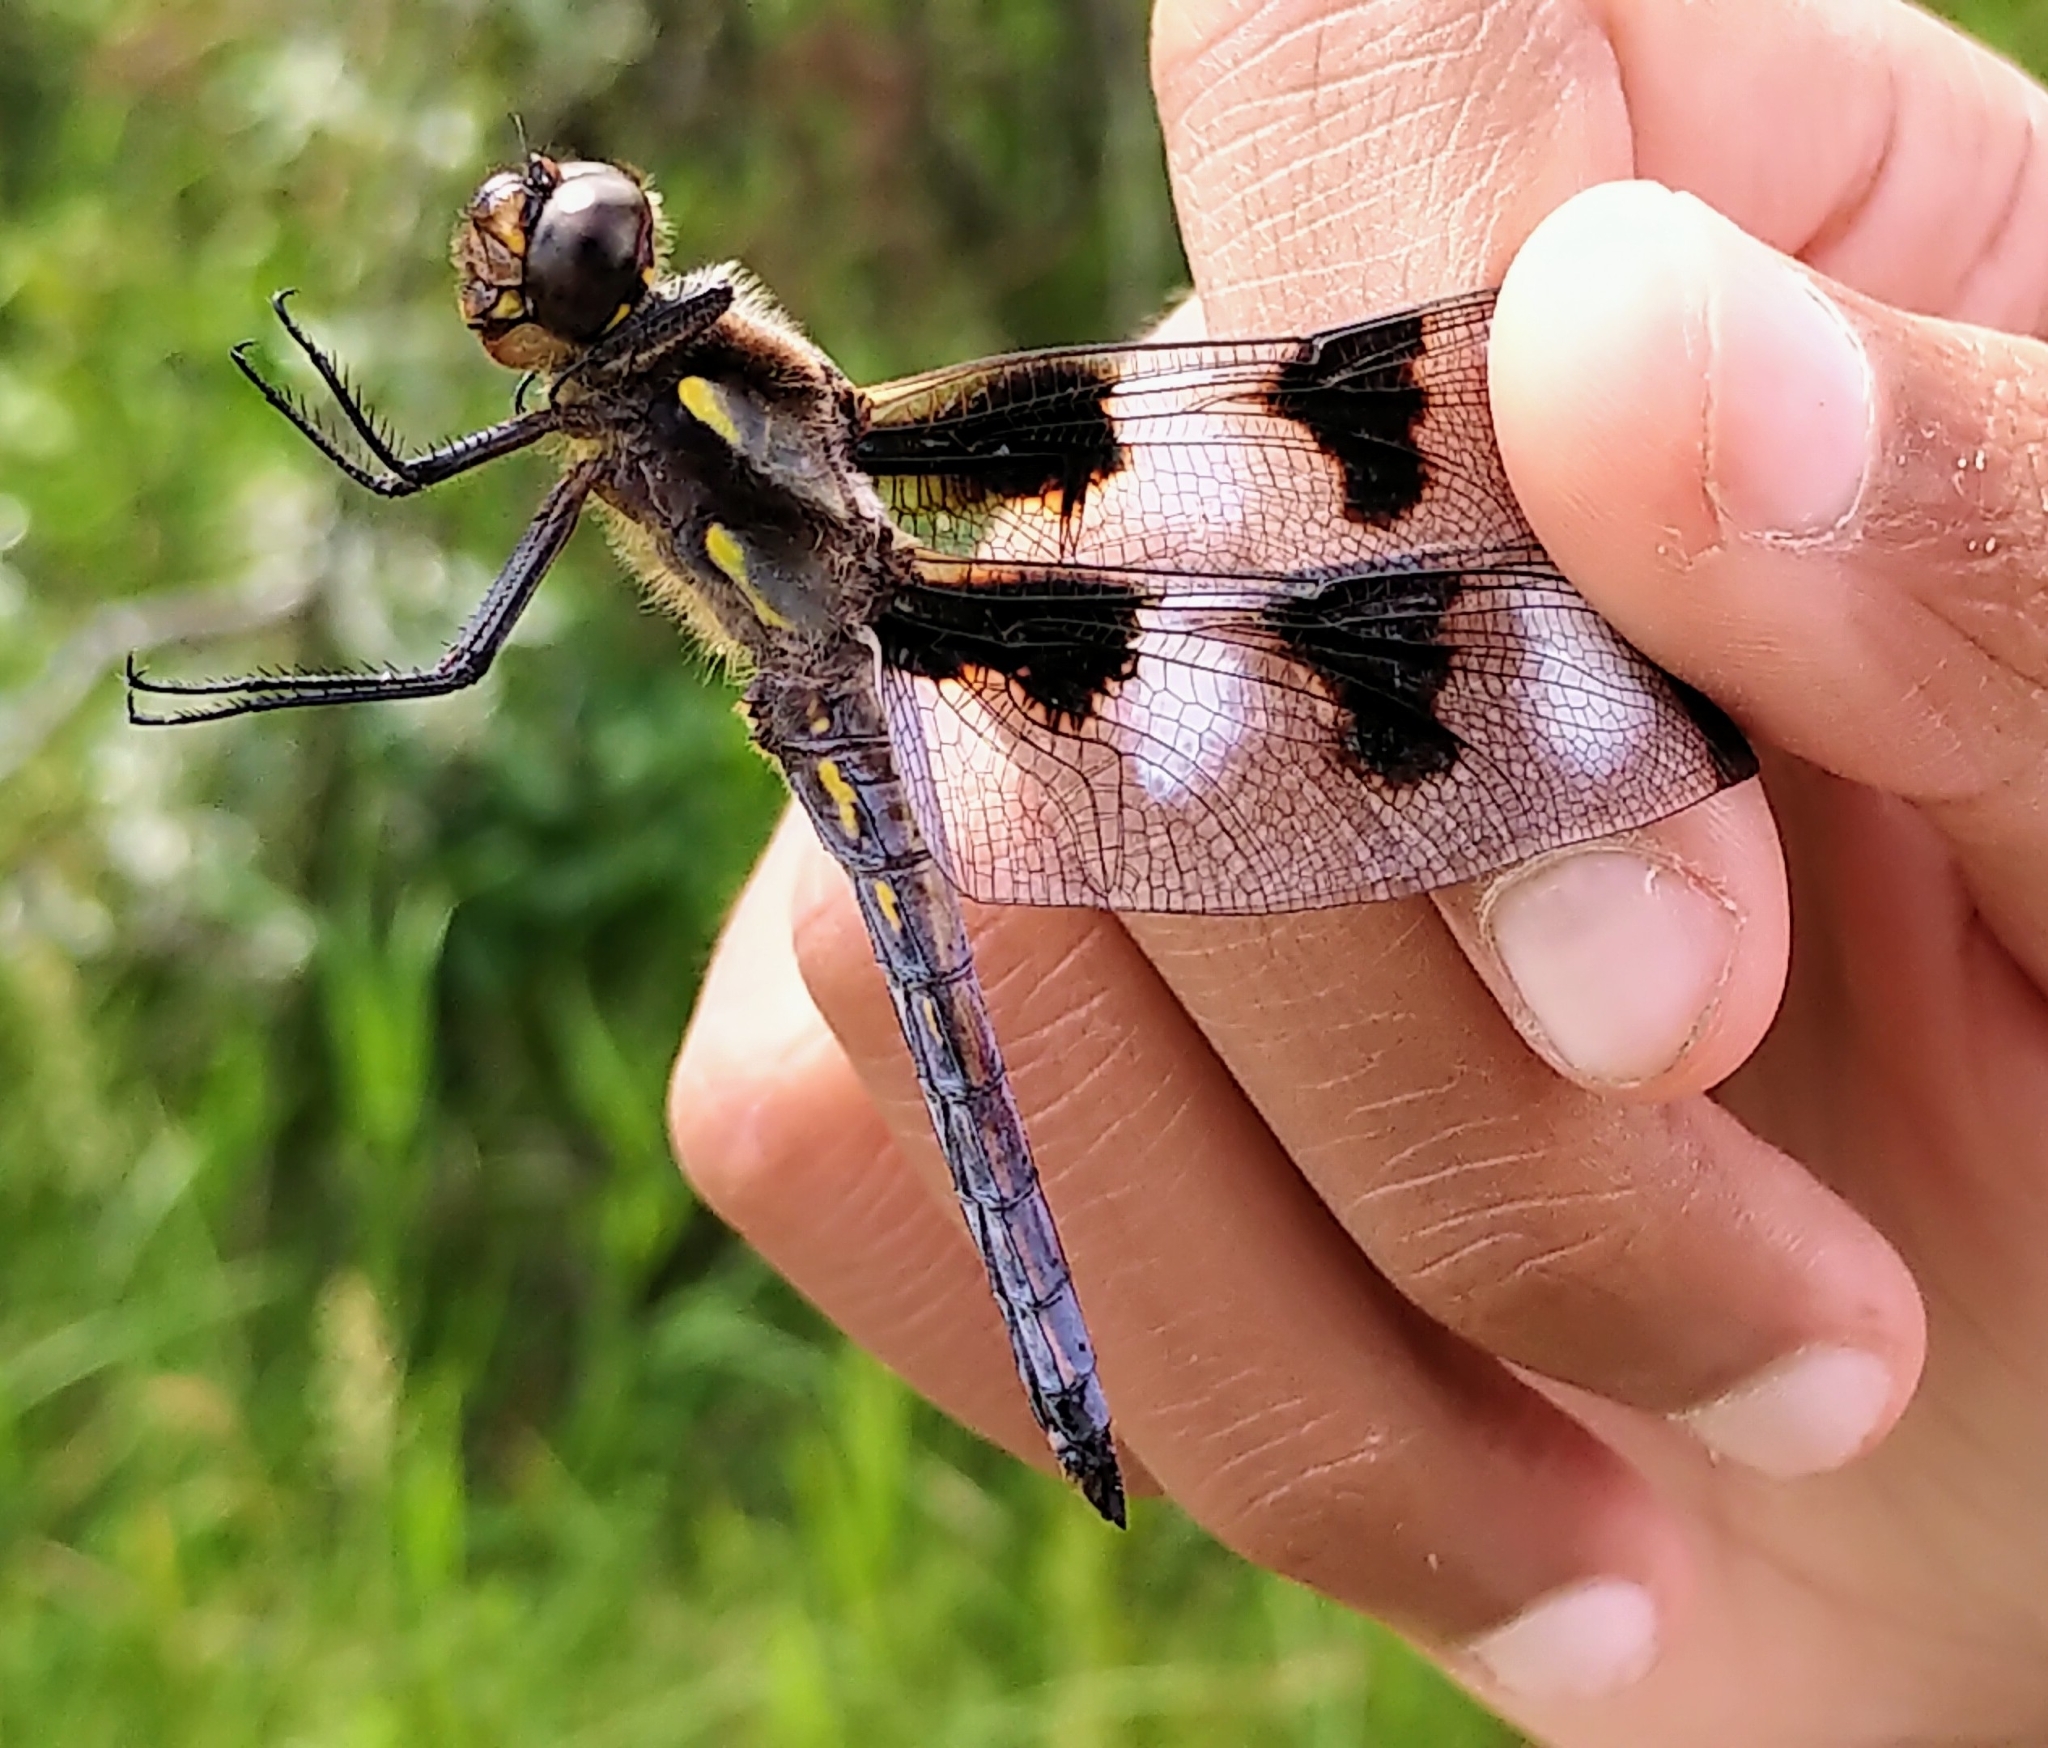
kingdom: Animalia
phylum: Arthropoda
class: Insecta
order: Odonata
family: Libellulidae
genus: Libellula
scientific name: Libellula pulchella
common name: Twelve-spotted skimmer
